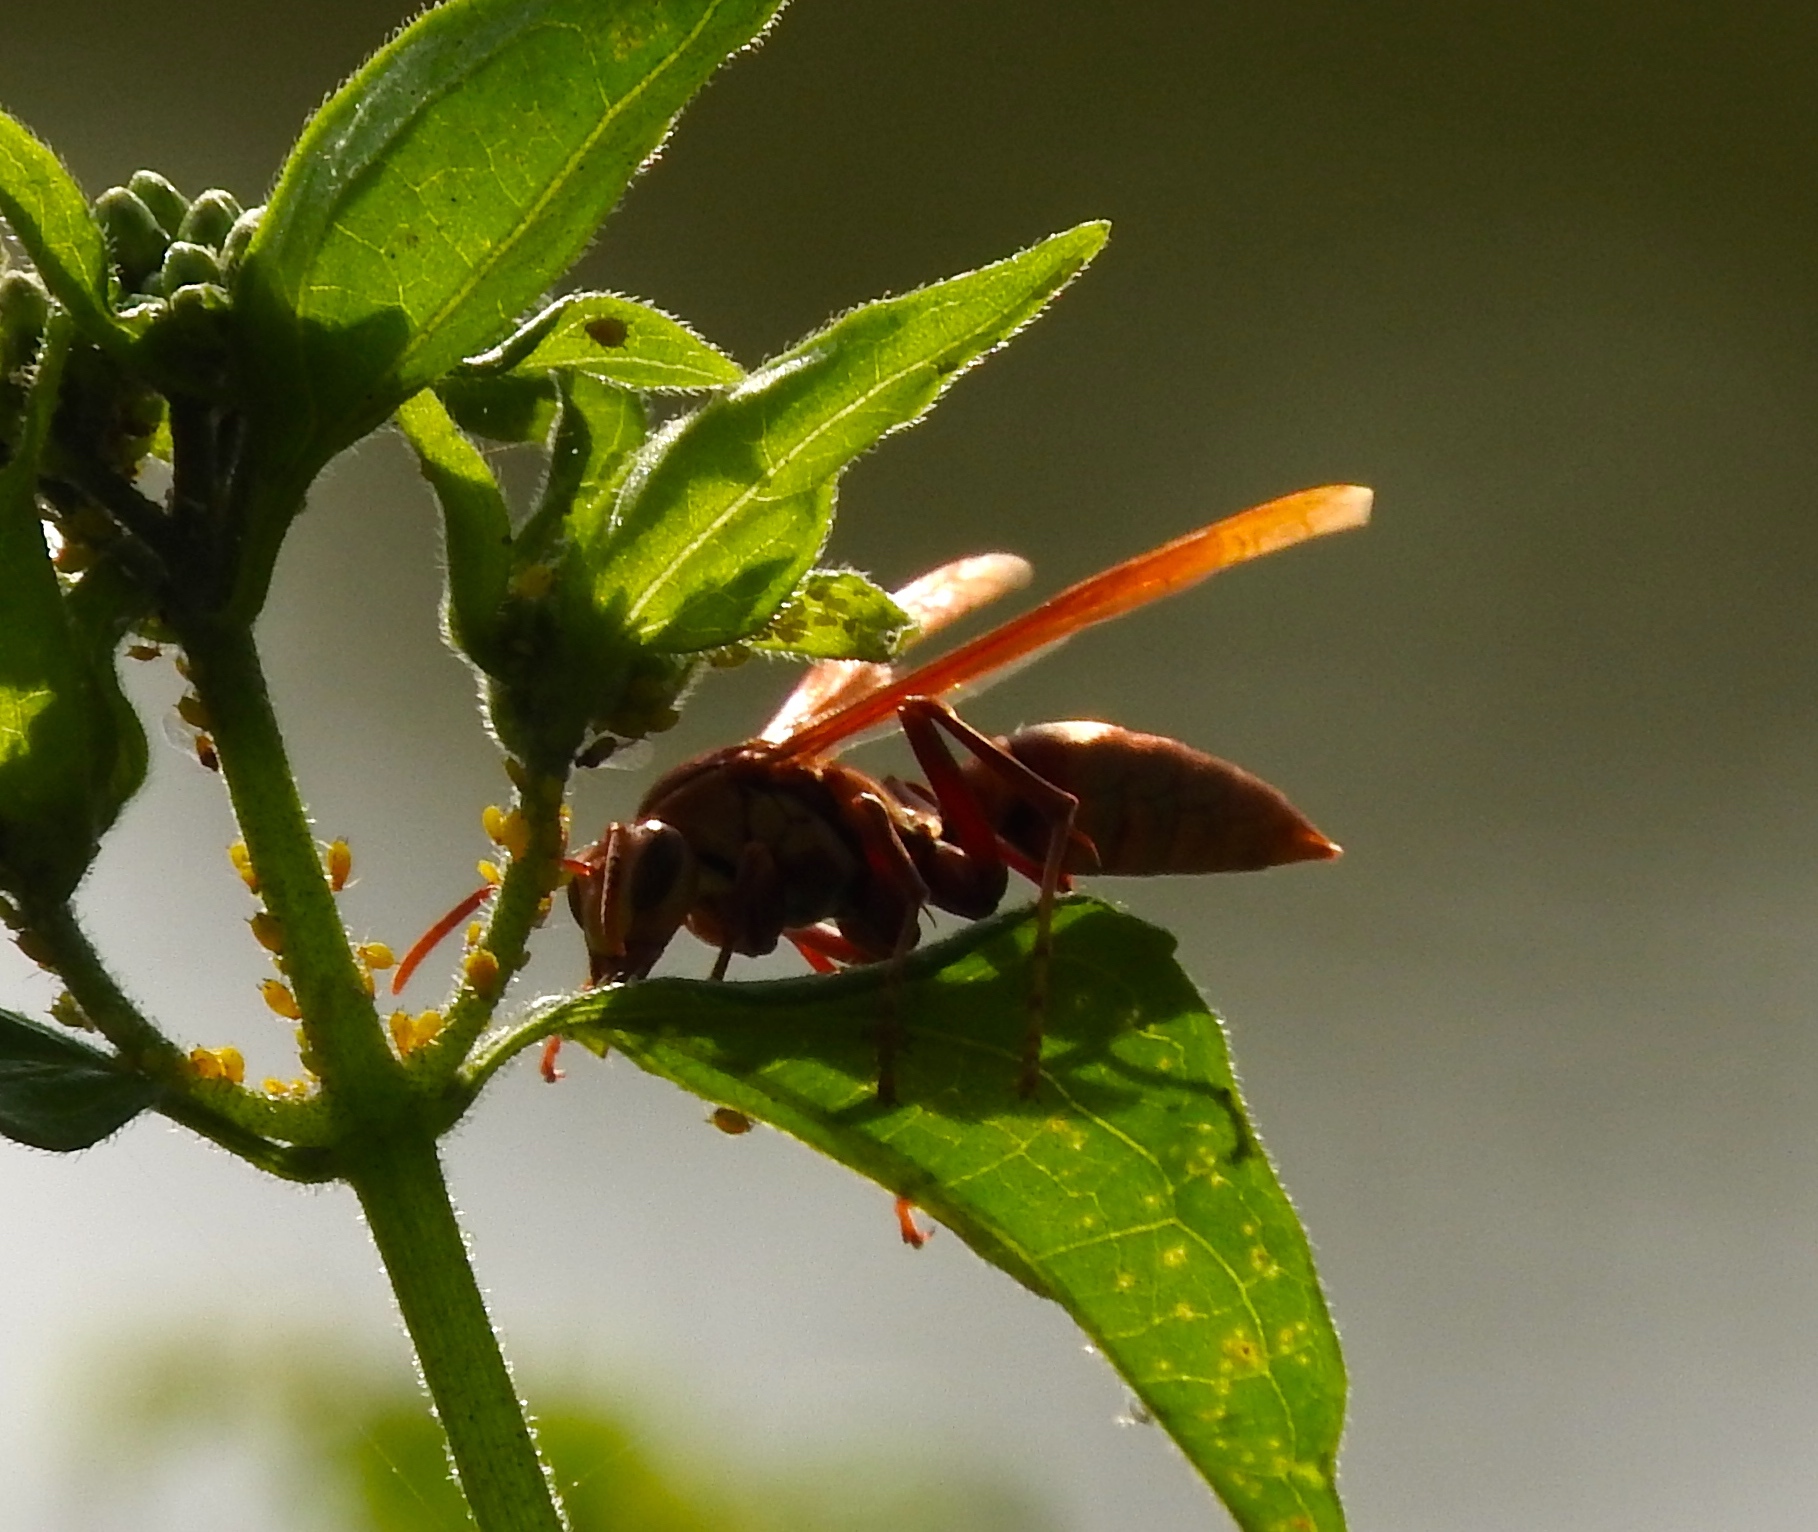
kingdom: Animalia
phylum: Arthropoda
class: Insecta
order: Hymenoptera
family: Eumenidae
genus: Polistes
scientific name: Polistes carnifex
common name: Paper wasp
